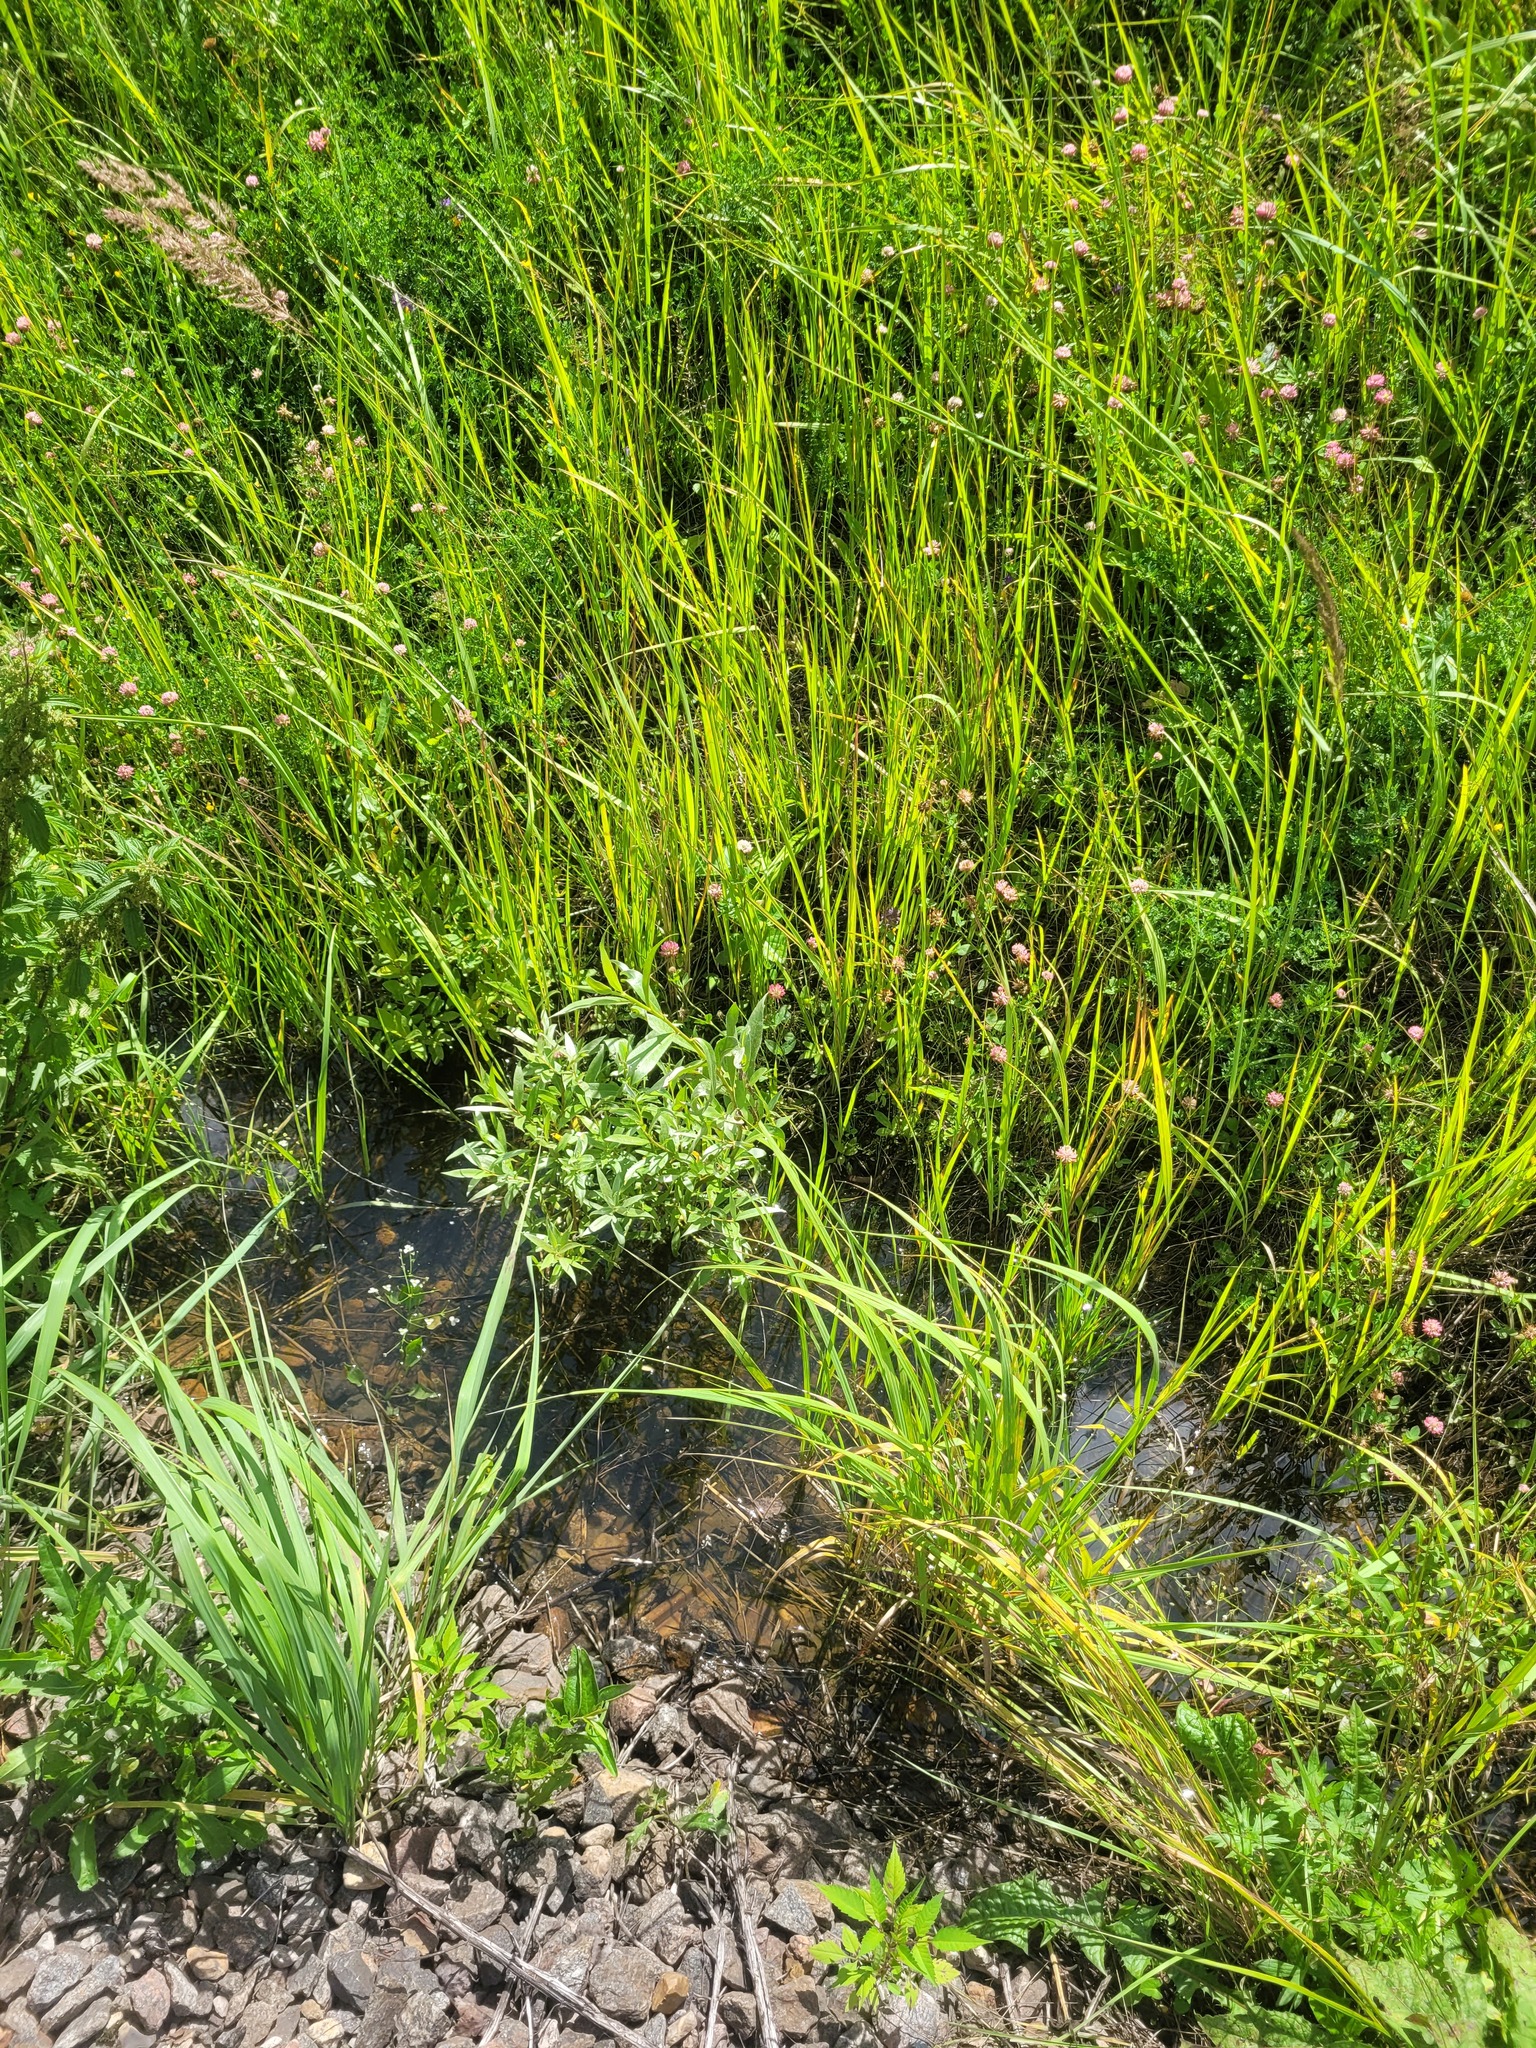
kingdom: Plantae
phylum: Tracheophyta
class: Magnoliopsida
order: Malpighiales
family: Salicaceae
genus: Salix
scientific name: Salix alba
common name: White willow
